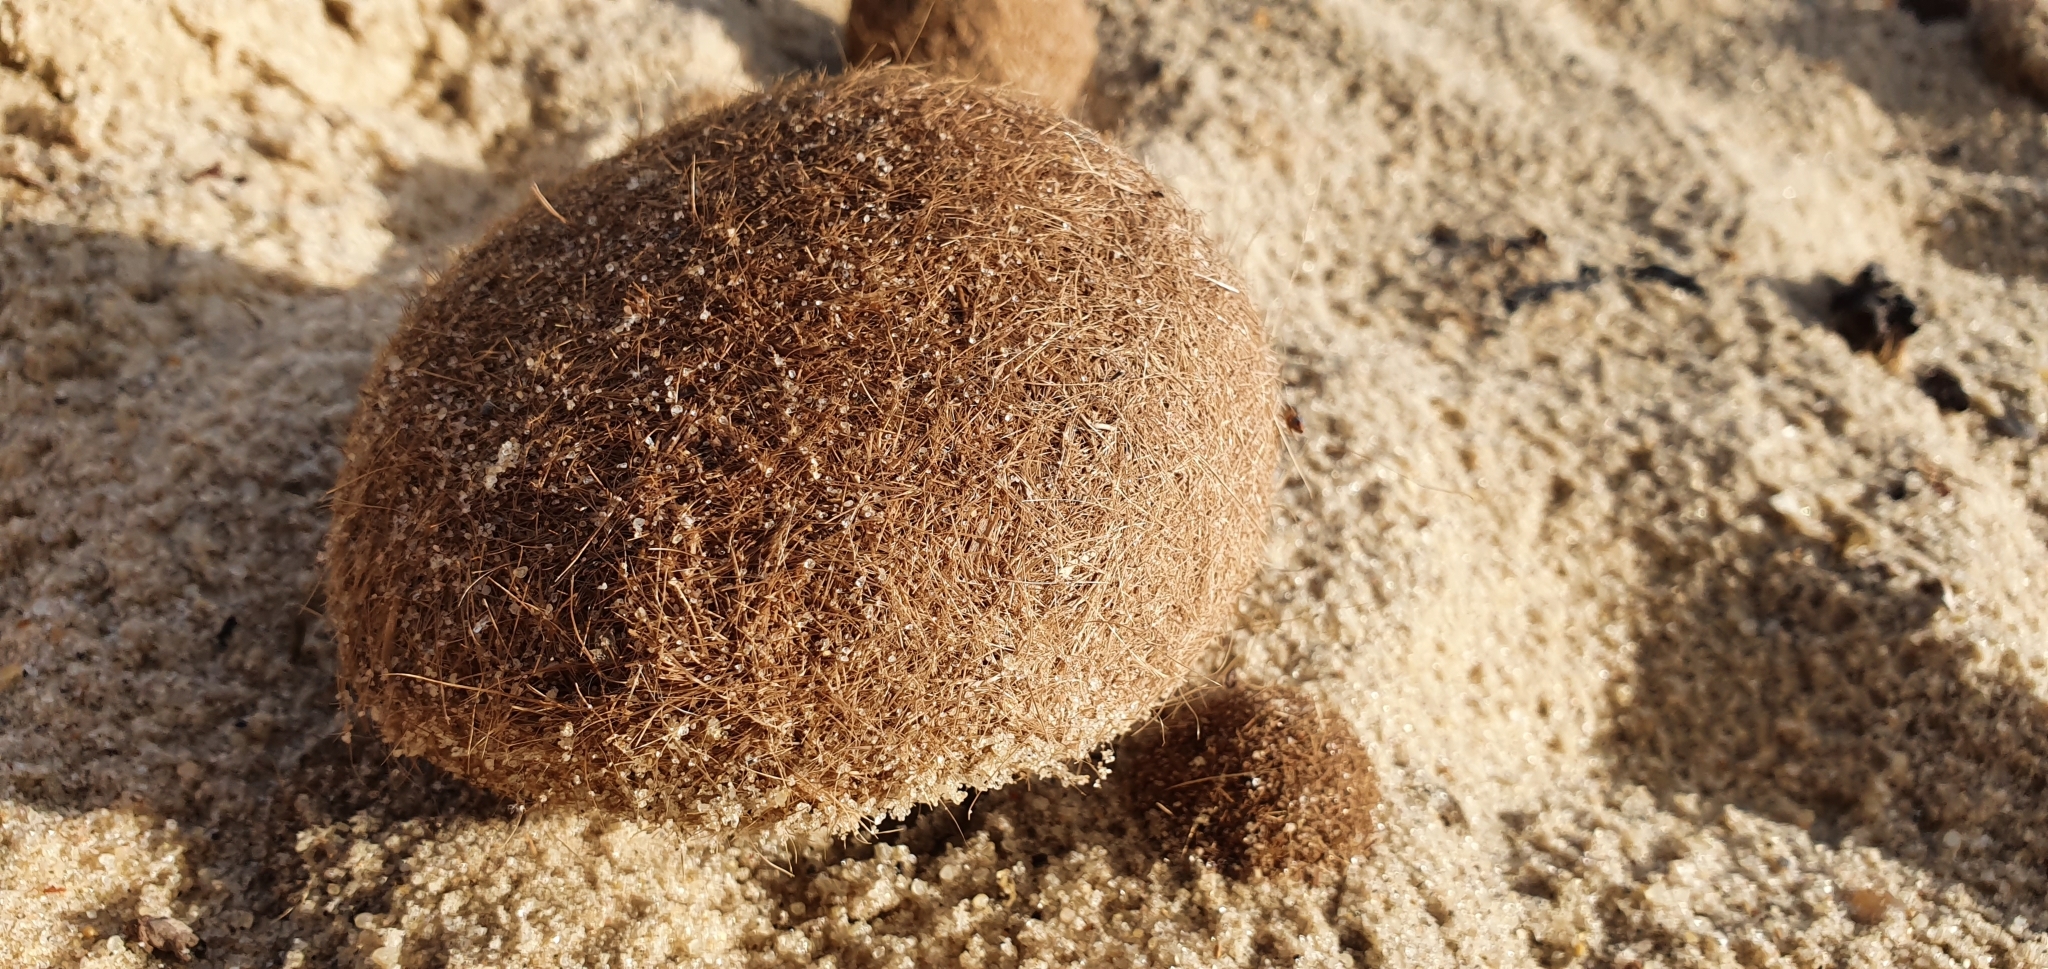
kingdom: Plantae
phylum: Tracheophyta
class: Liliopsida
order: Alismatales
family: Posidoniaceae
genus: Posidonia
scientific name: Posidonia oceanica
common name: Mediterranean tapeweed
